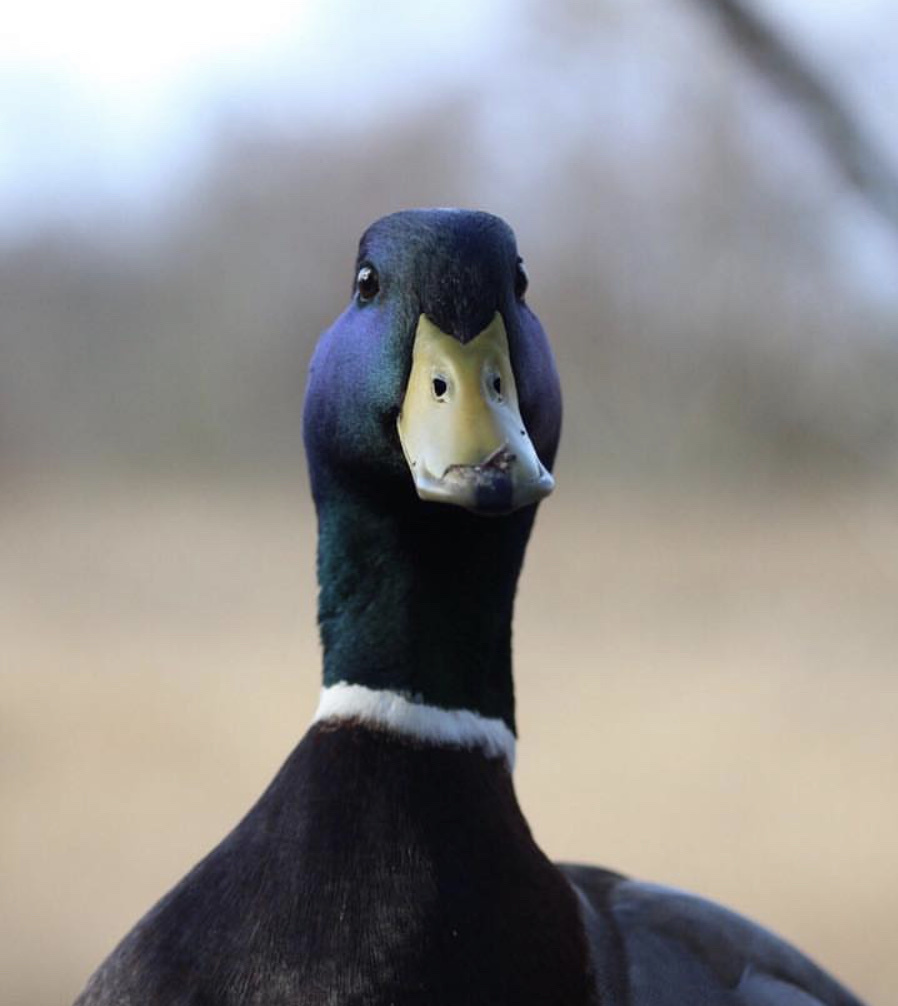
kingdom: Animalia
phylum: Chordata
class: Aves
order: Anseriformes
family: Anatidae
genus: Anas
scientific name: Anas platyrhynchos
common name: Mallard
